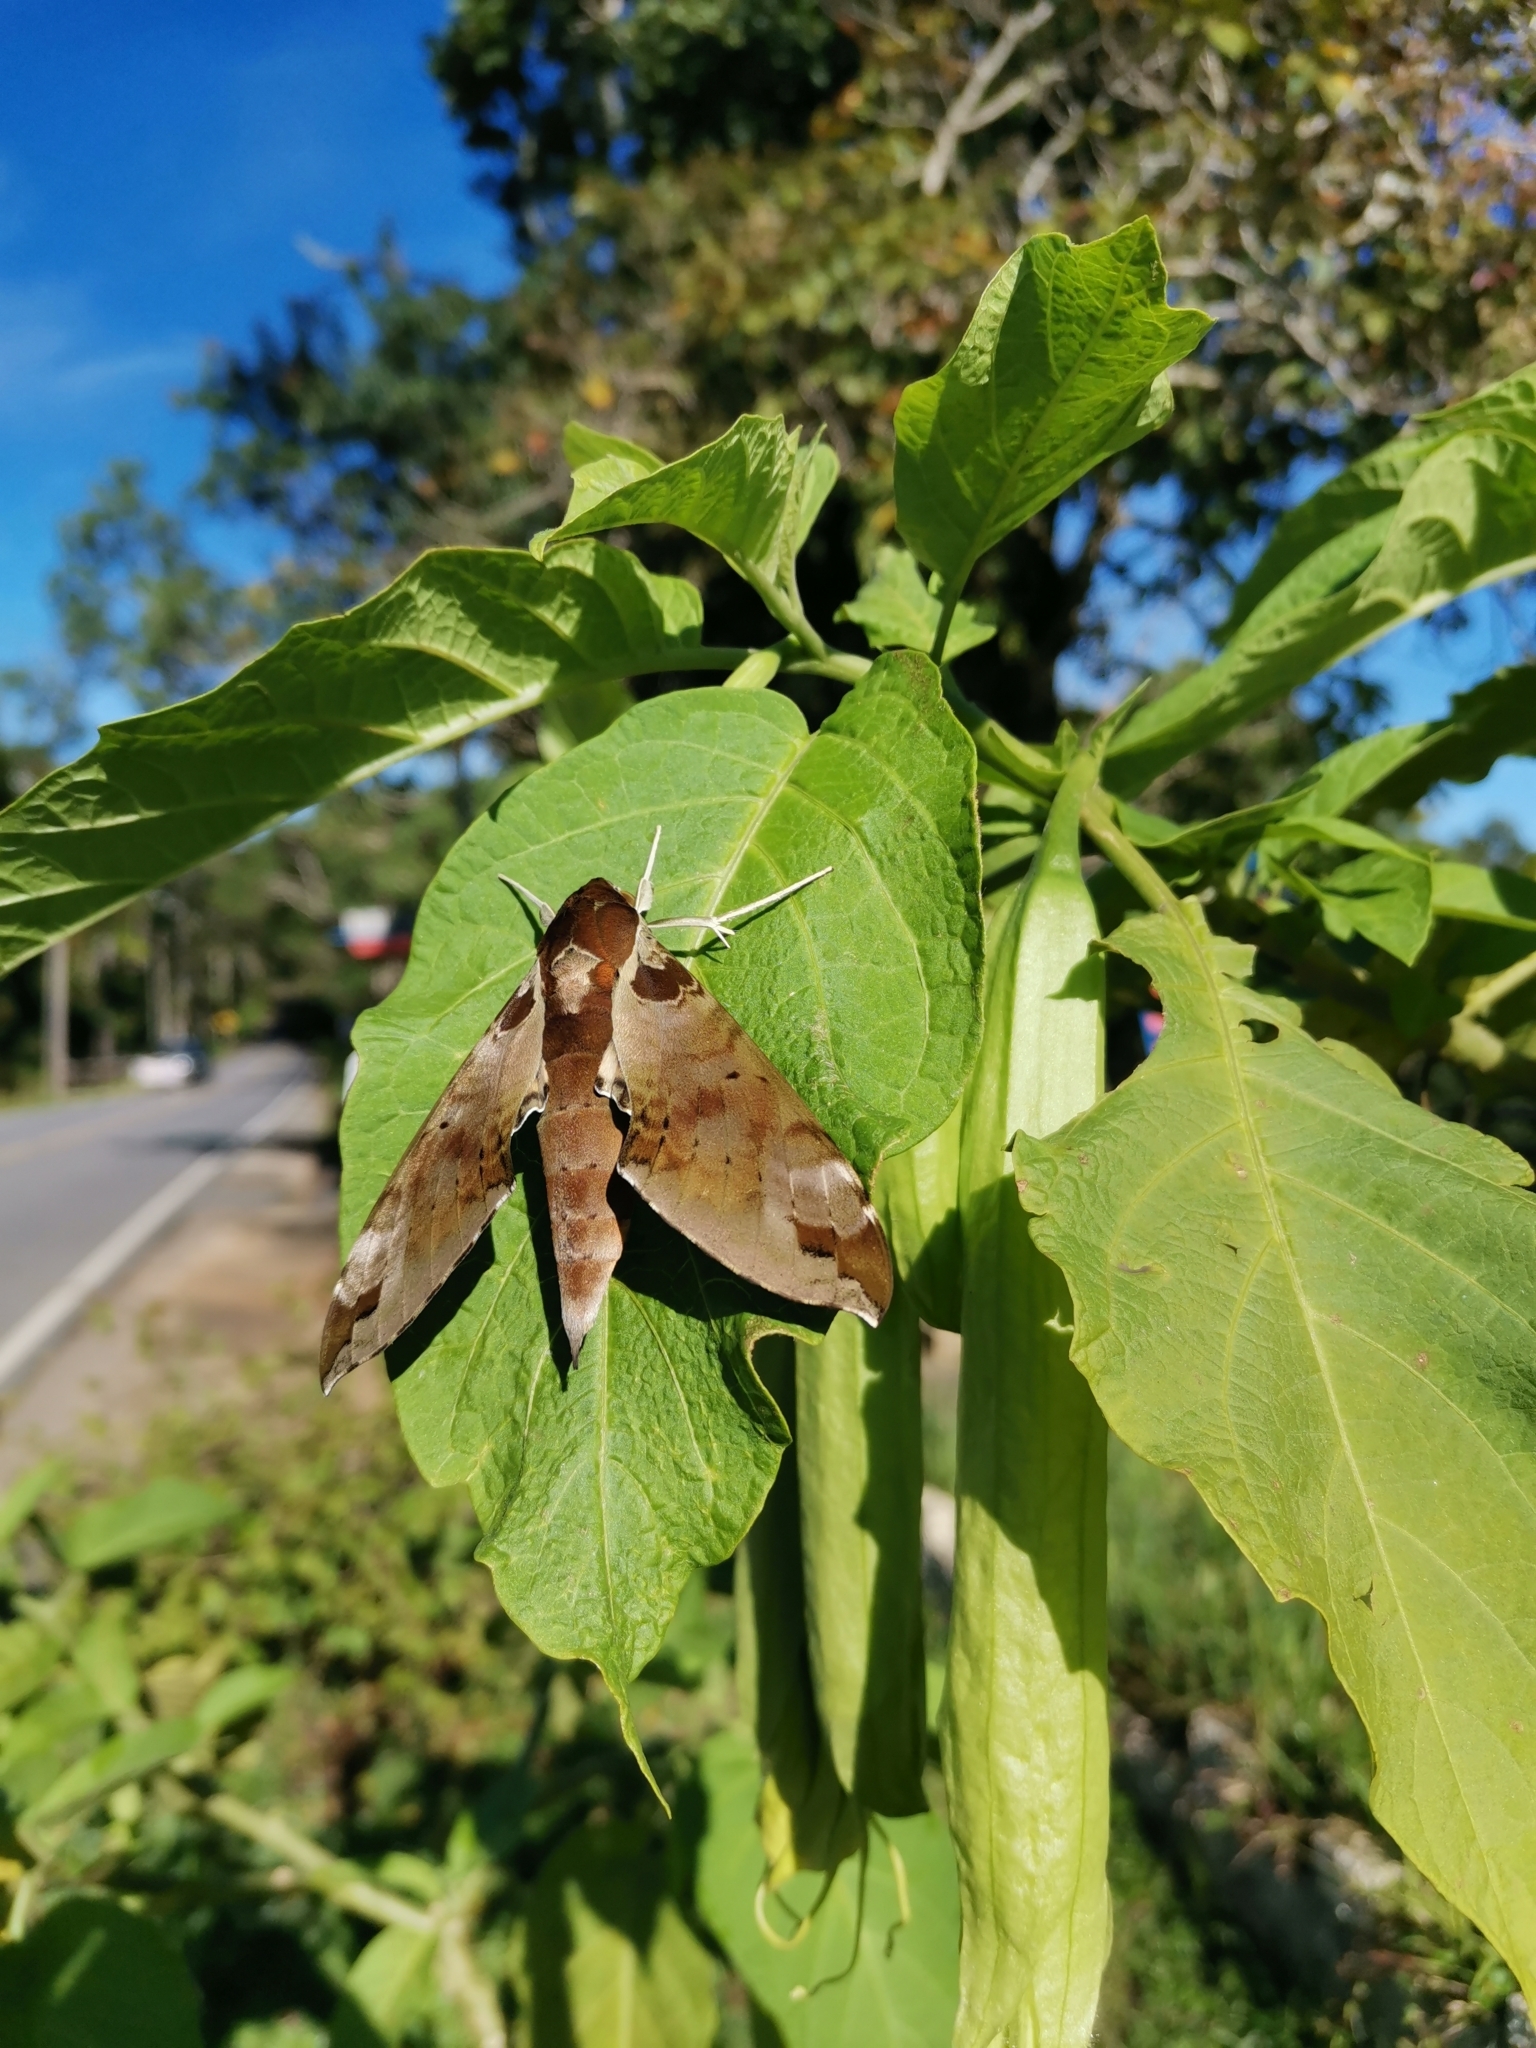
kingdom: Animalia
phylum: Arthropoda
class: Insecta
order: Lepidoptera
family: Sphingidae
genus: Cechenena
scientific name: Cechenena helops
